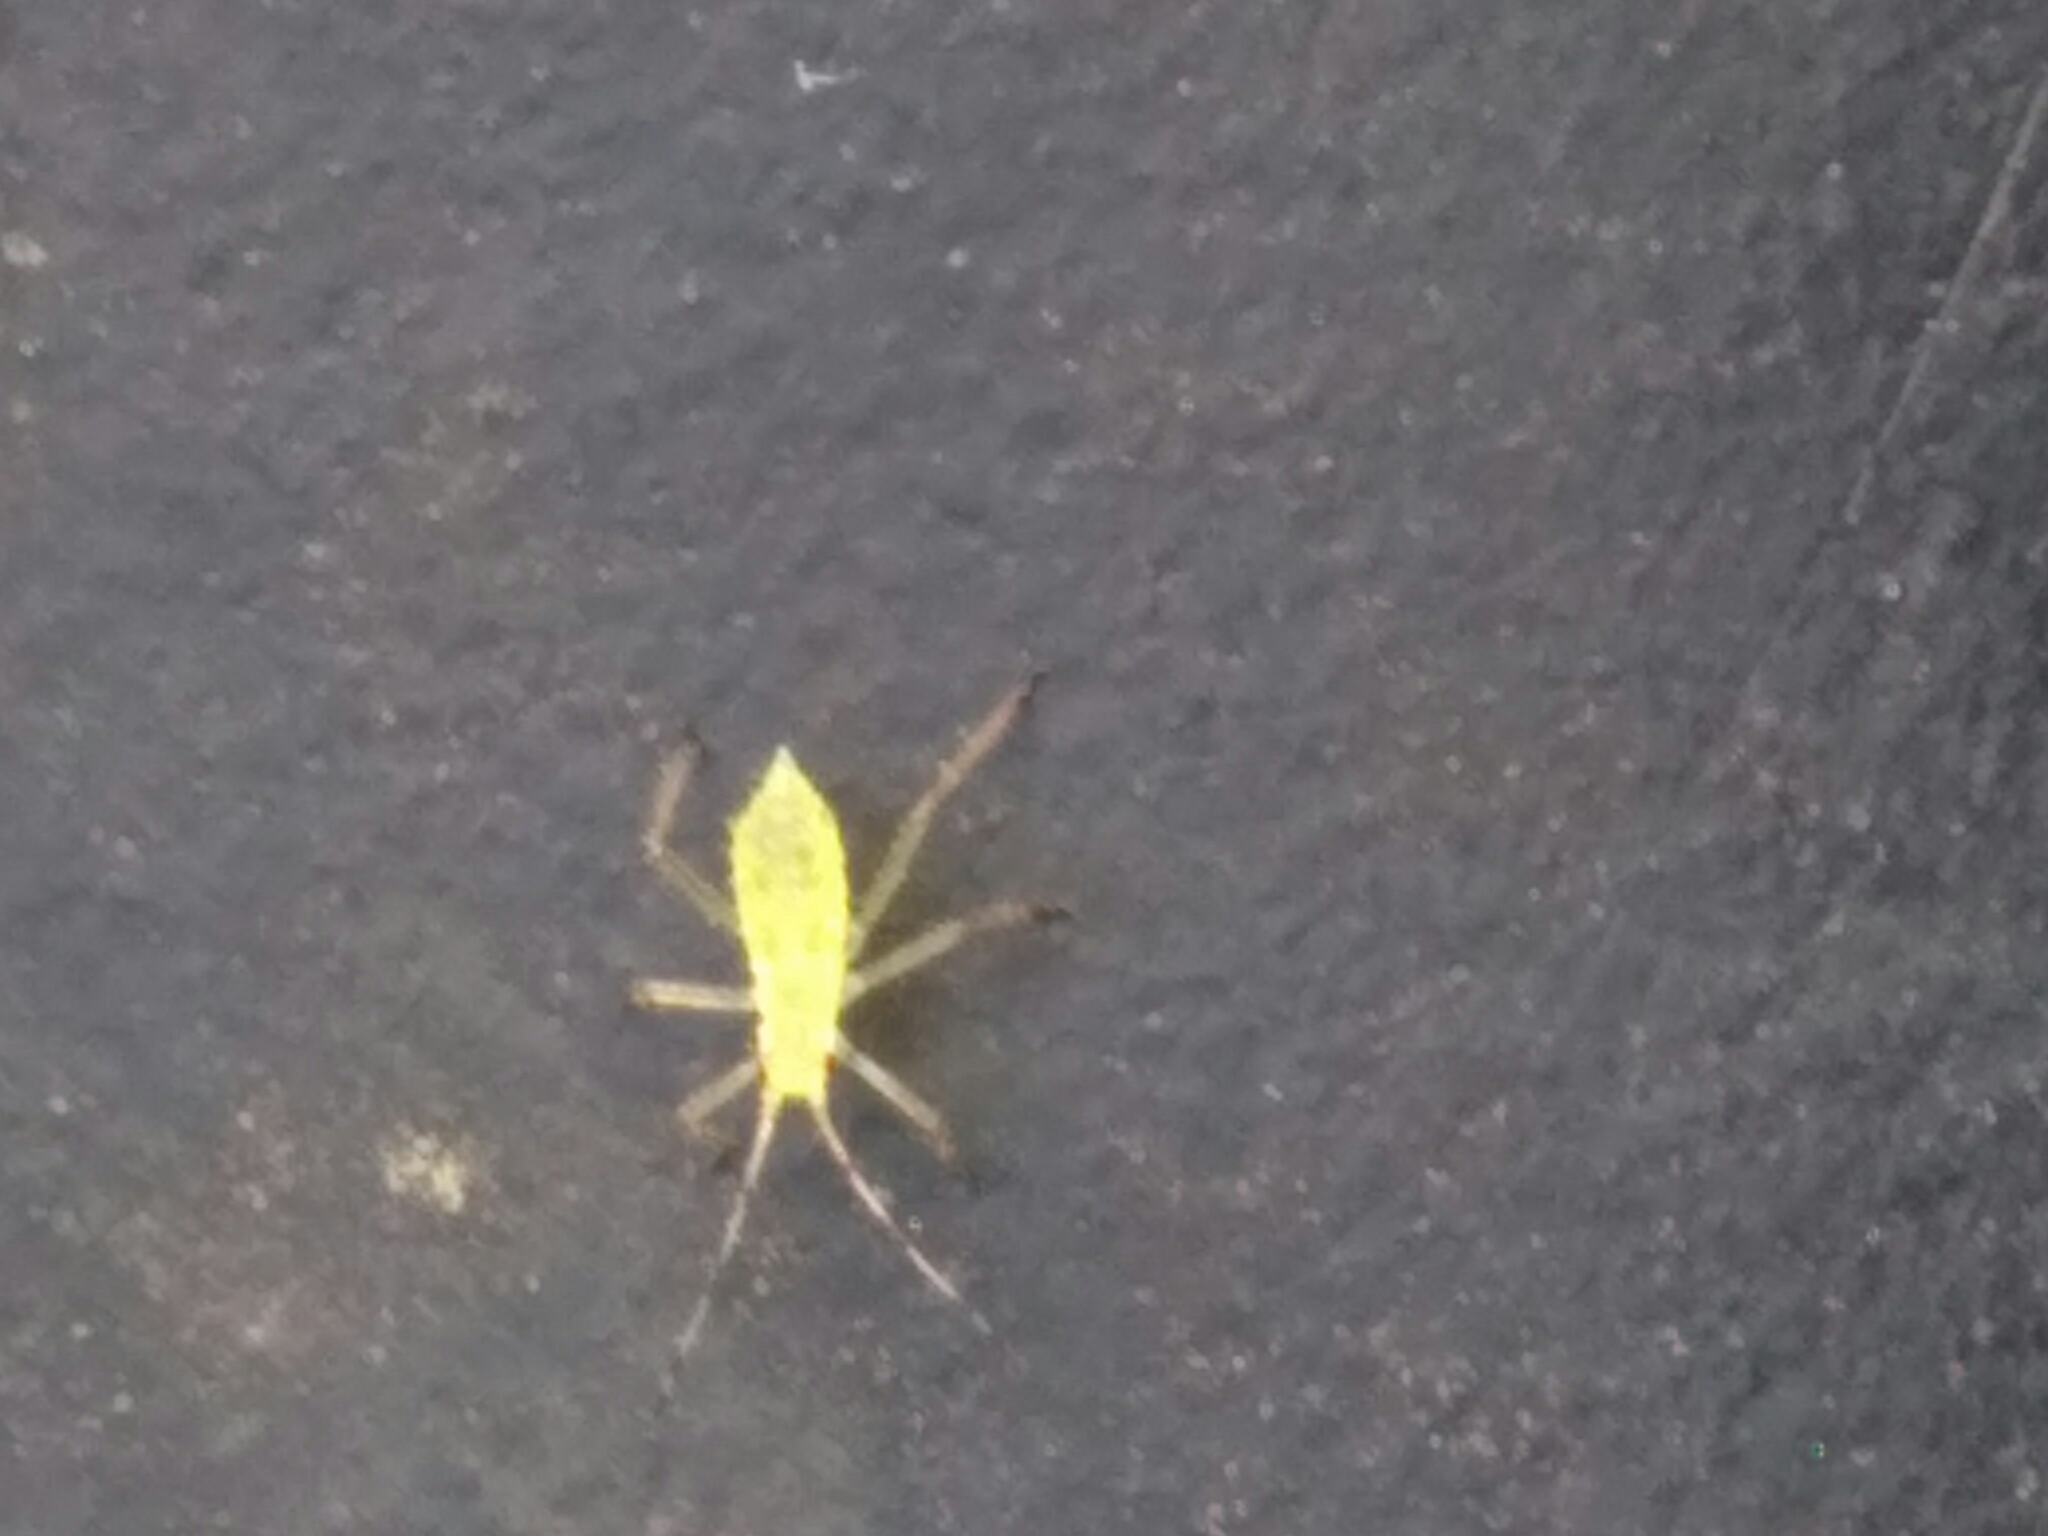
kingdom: Animalia
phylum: Arthropoda
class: Insecta
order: Hemiptera
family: Aphididae
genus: Euceraphis
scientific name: Euceraphis
